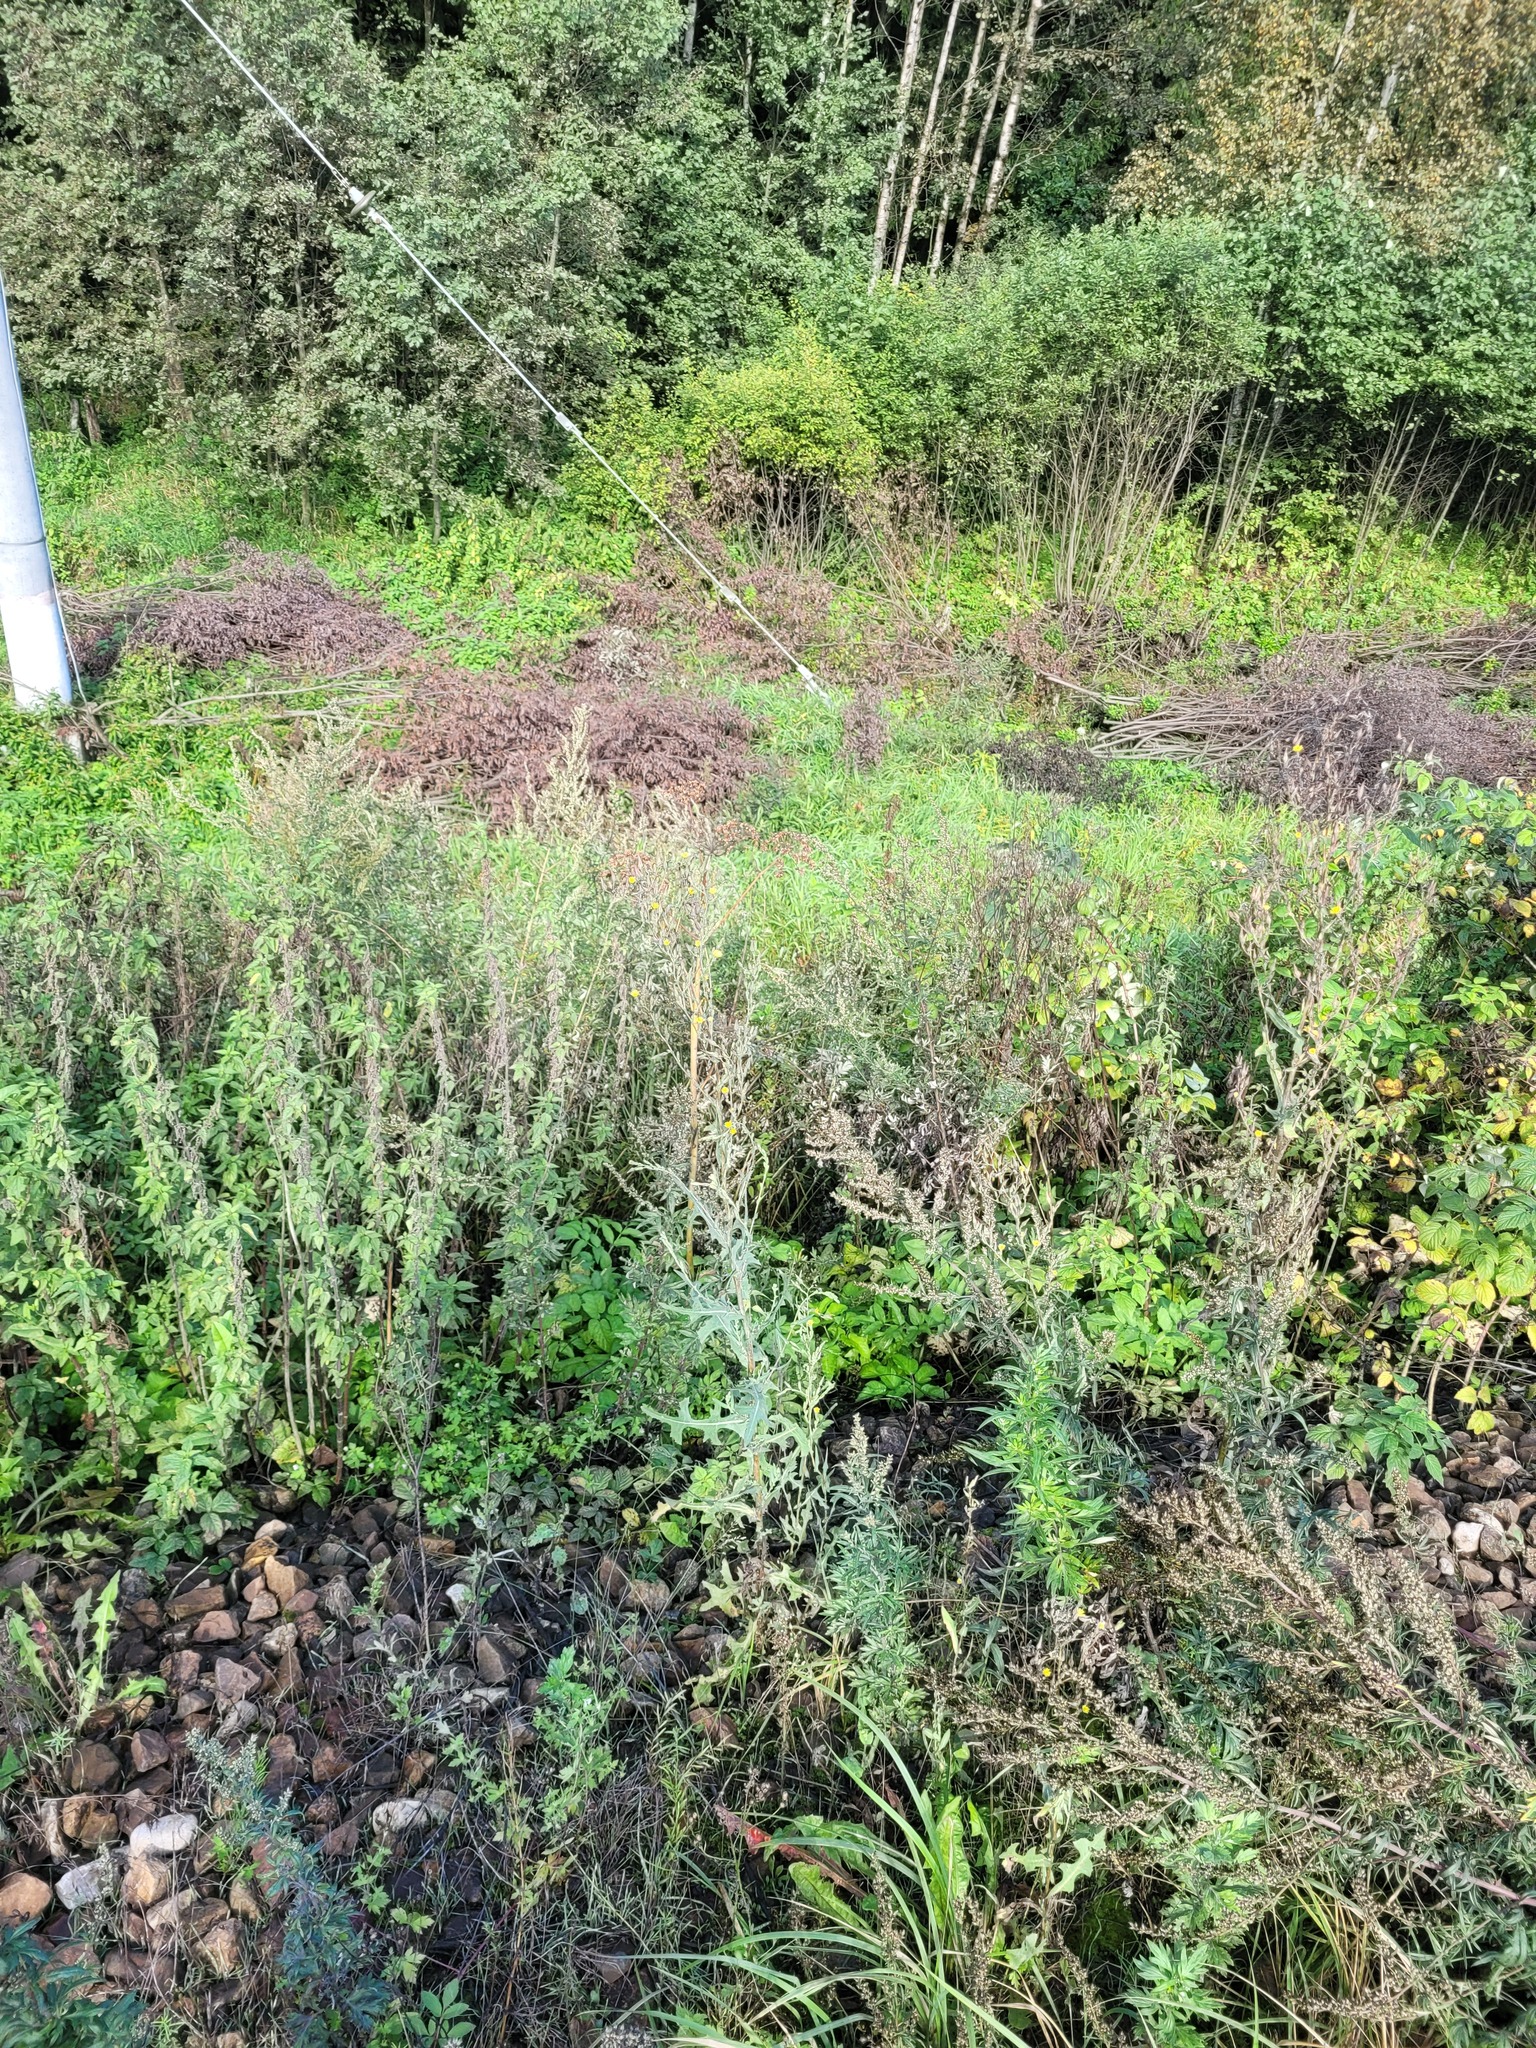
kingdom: Plantae
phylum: Tracheophyta
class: Magnoliopsida
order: Asterales
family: Asteraceae
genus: Lactuca
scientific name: Lactuca serriola
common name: Prickly lettuce
